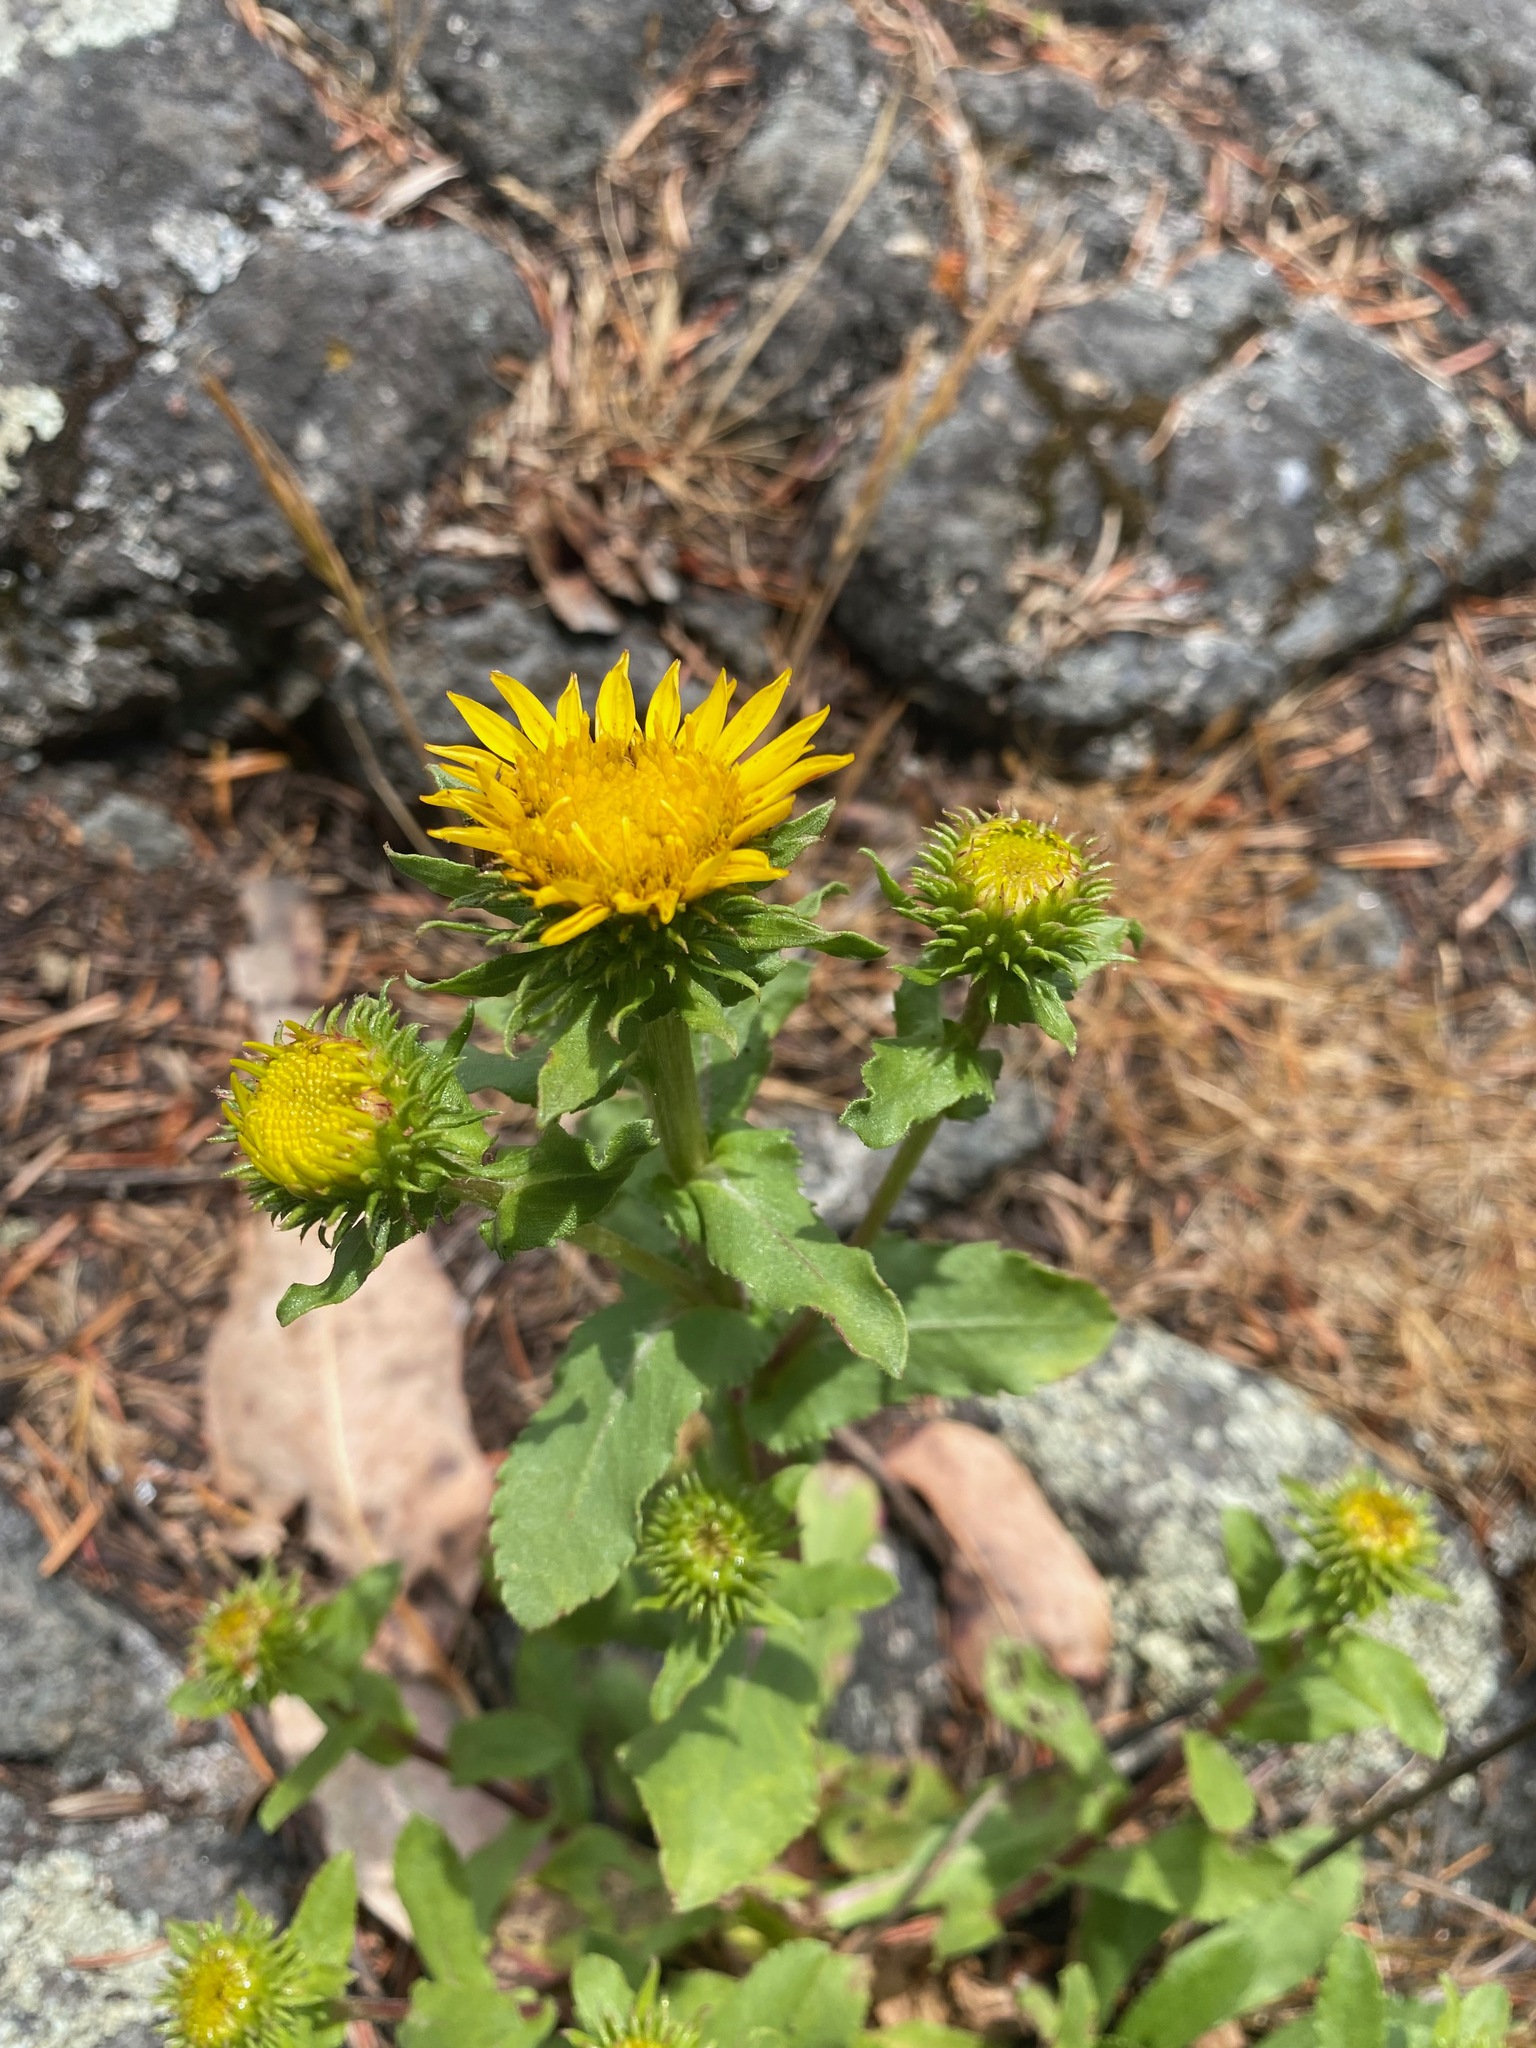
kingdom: Plantae
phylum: Tracheophyta
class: Magnoliopsida
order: Asterales
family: Asteraceae
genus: Grindelia
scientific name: Grindelia hirsutula
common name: Hairy gumweed
